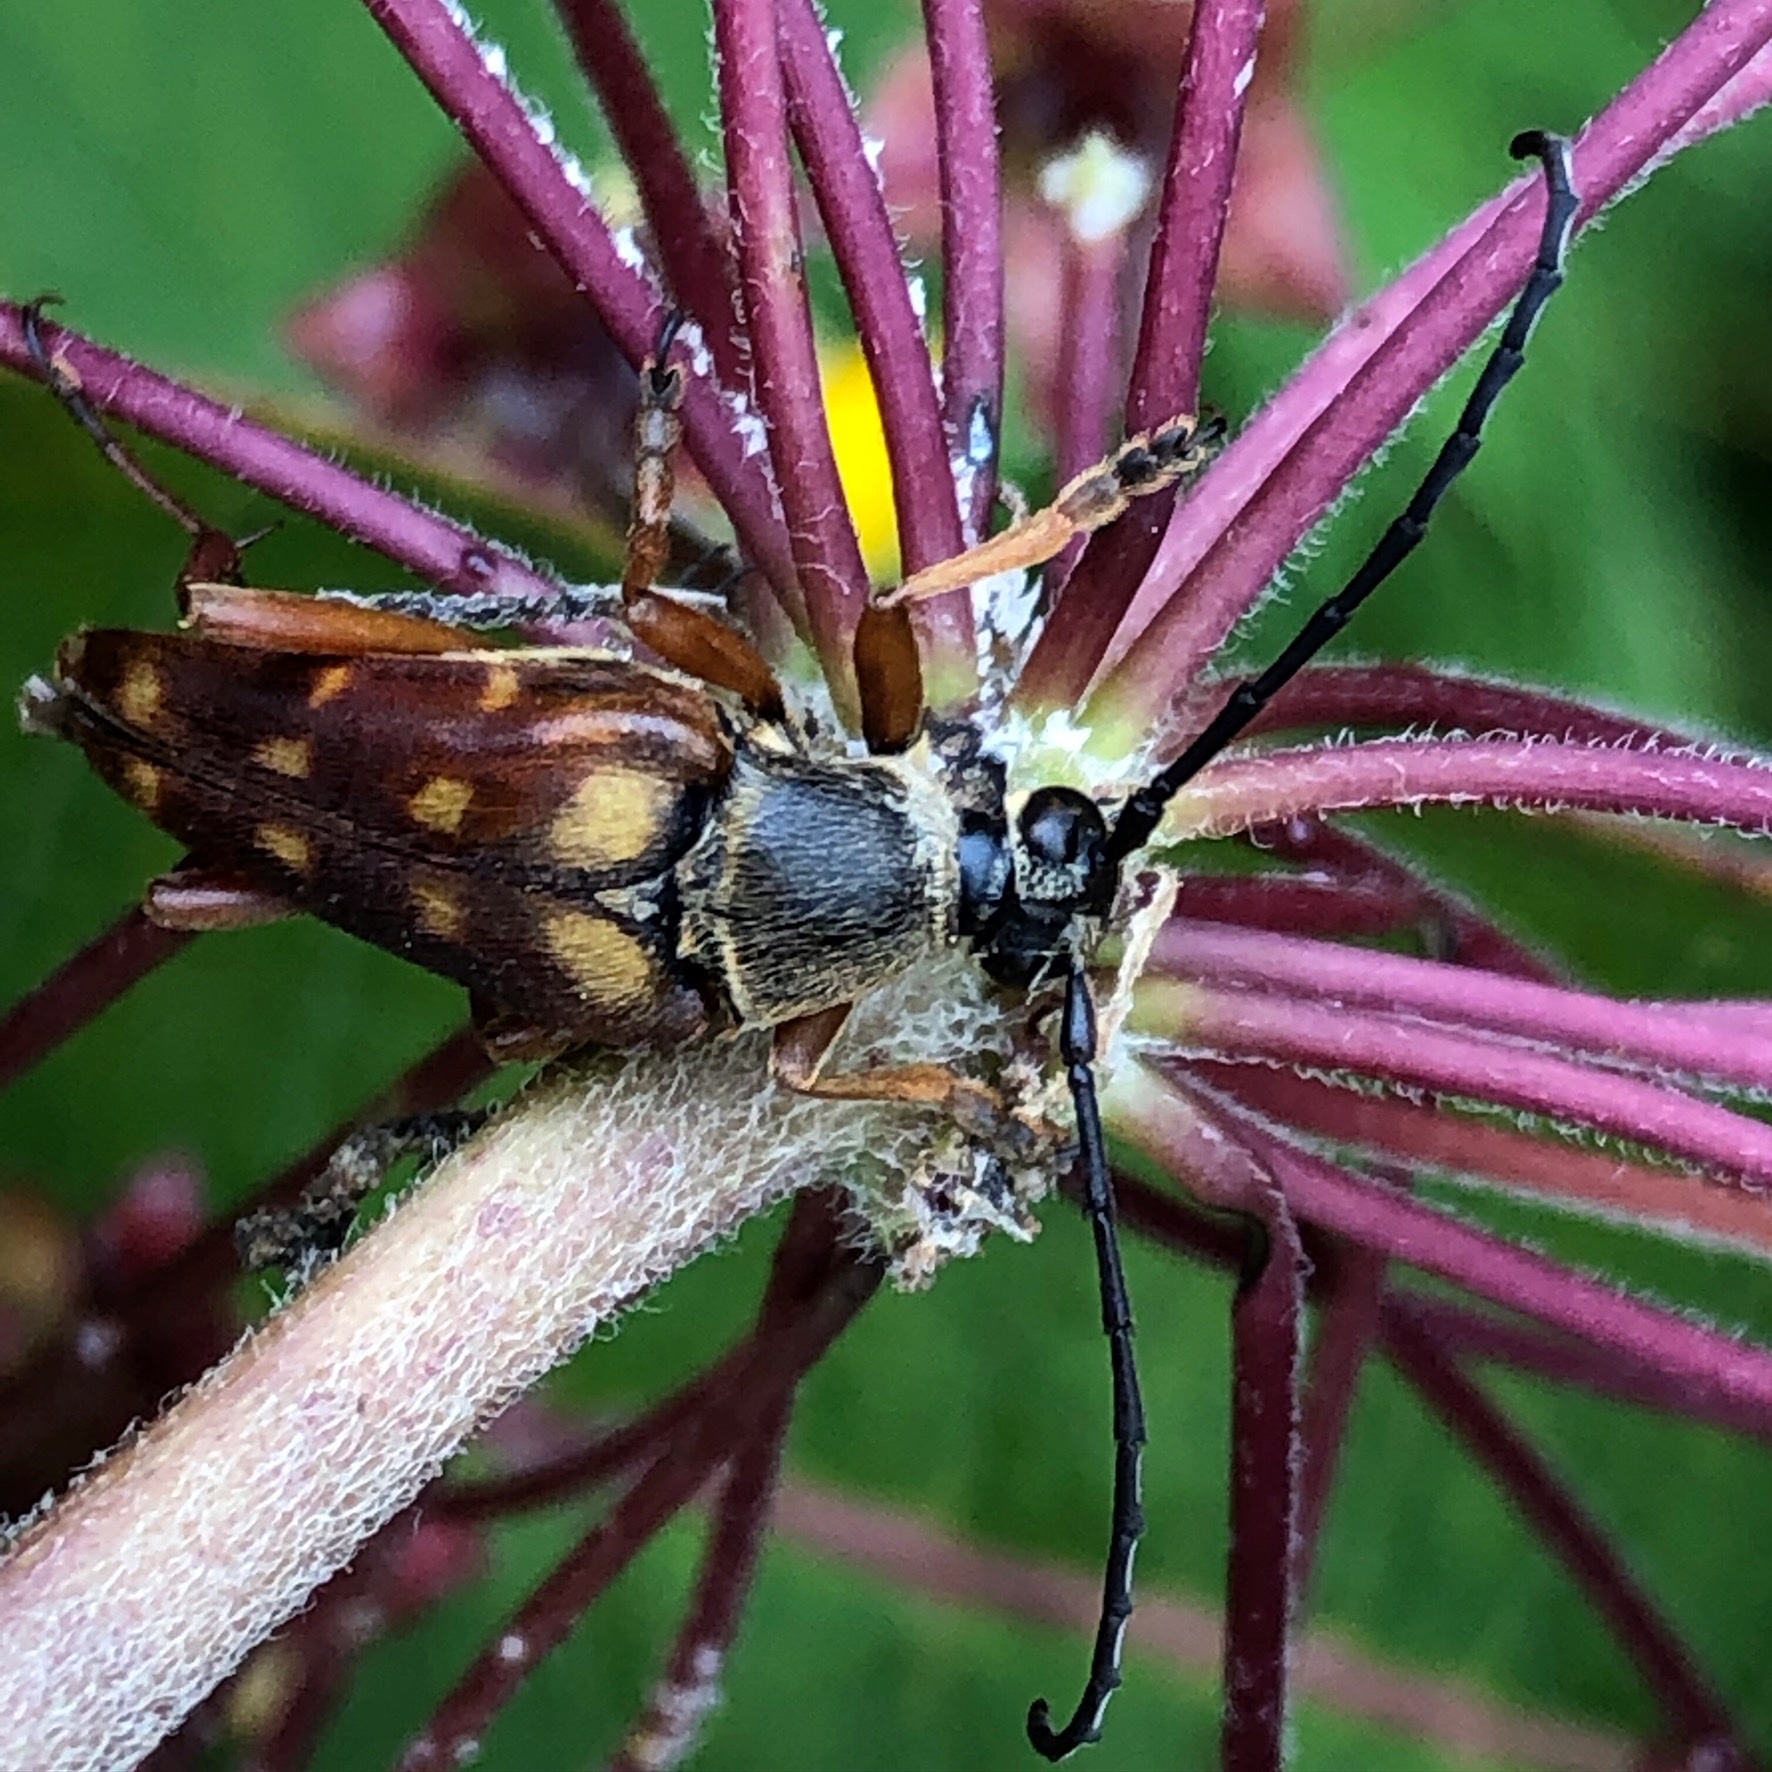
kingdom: Animalia
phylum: Arthropoda
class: Insecta
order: Coleoptera
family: Cerambycidae
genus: Typocerus
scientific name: Typocerus velutinus
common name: Banded longhorn beetle
